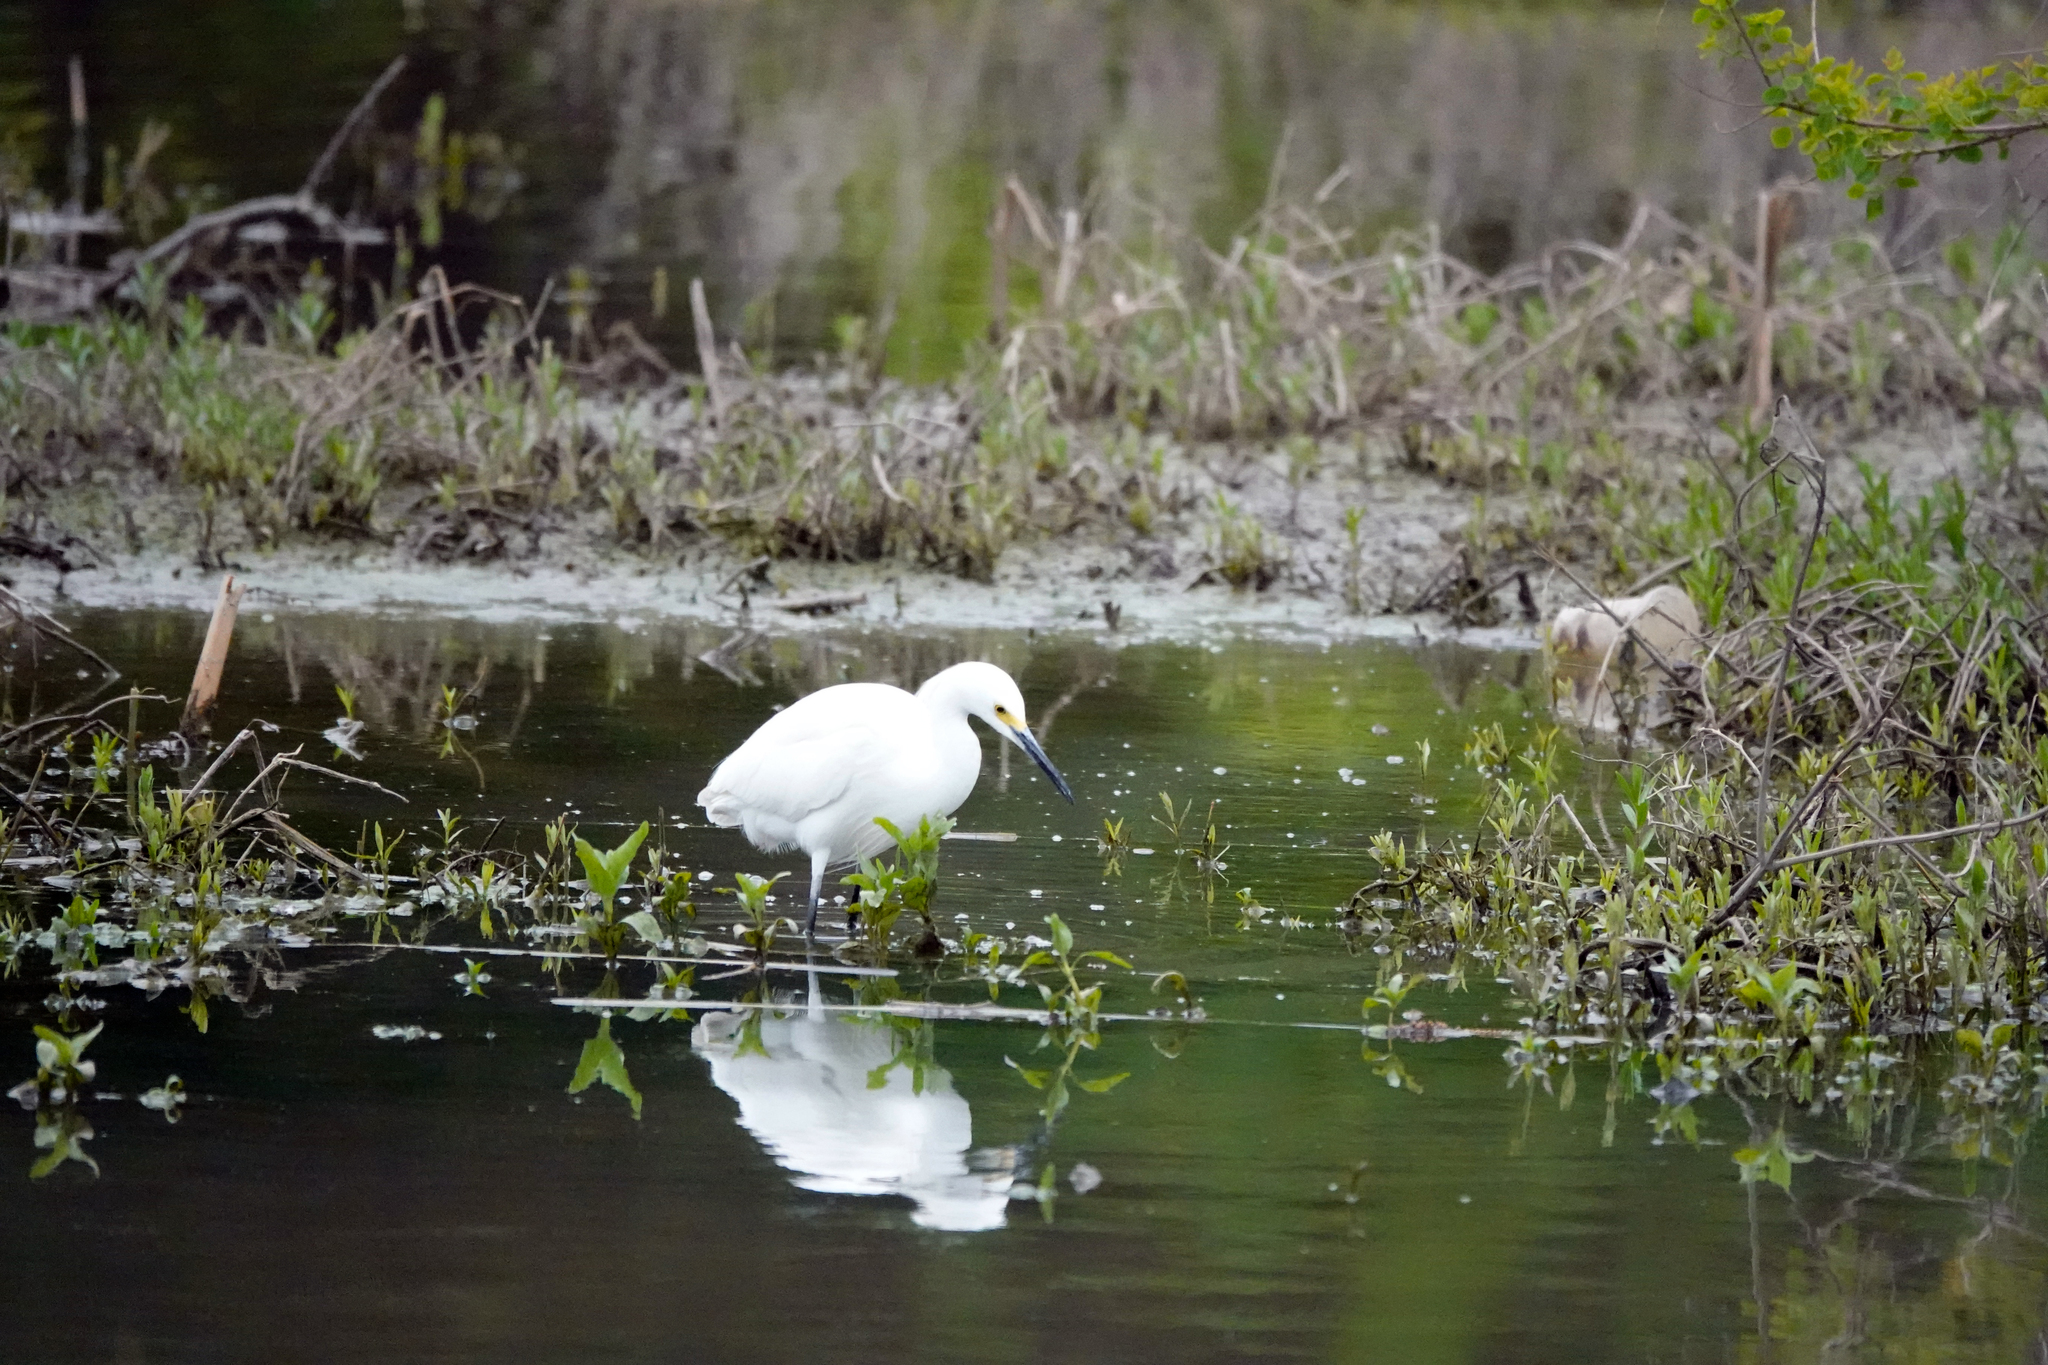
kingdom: Animalia
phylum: Chordata
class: Aves
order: Pelecaniformes
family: Ardeidae
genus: Egretta
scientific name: Egretta thula
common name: Snowy egret
